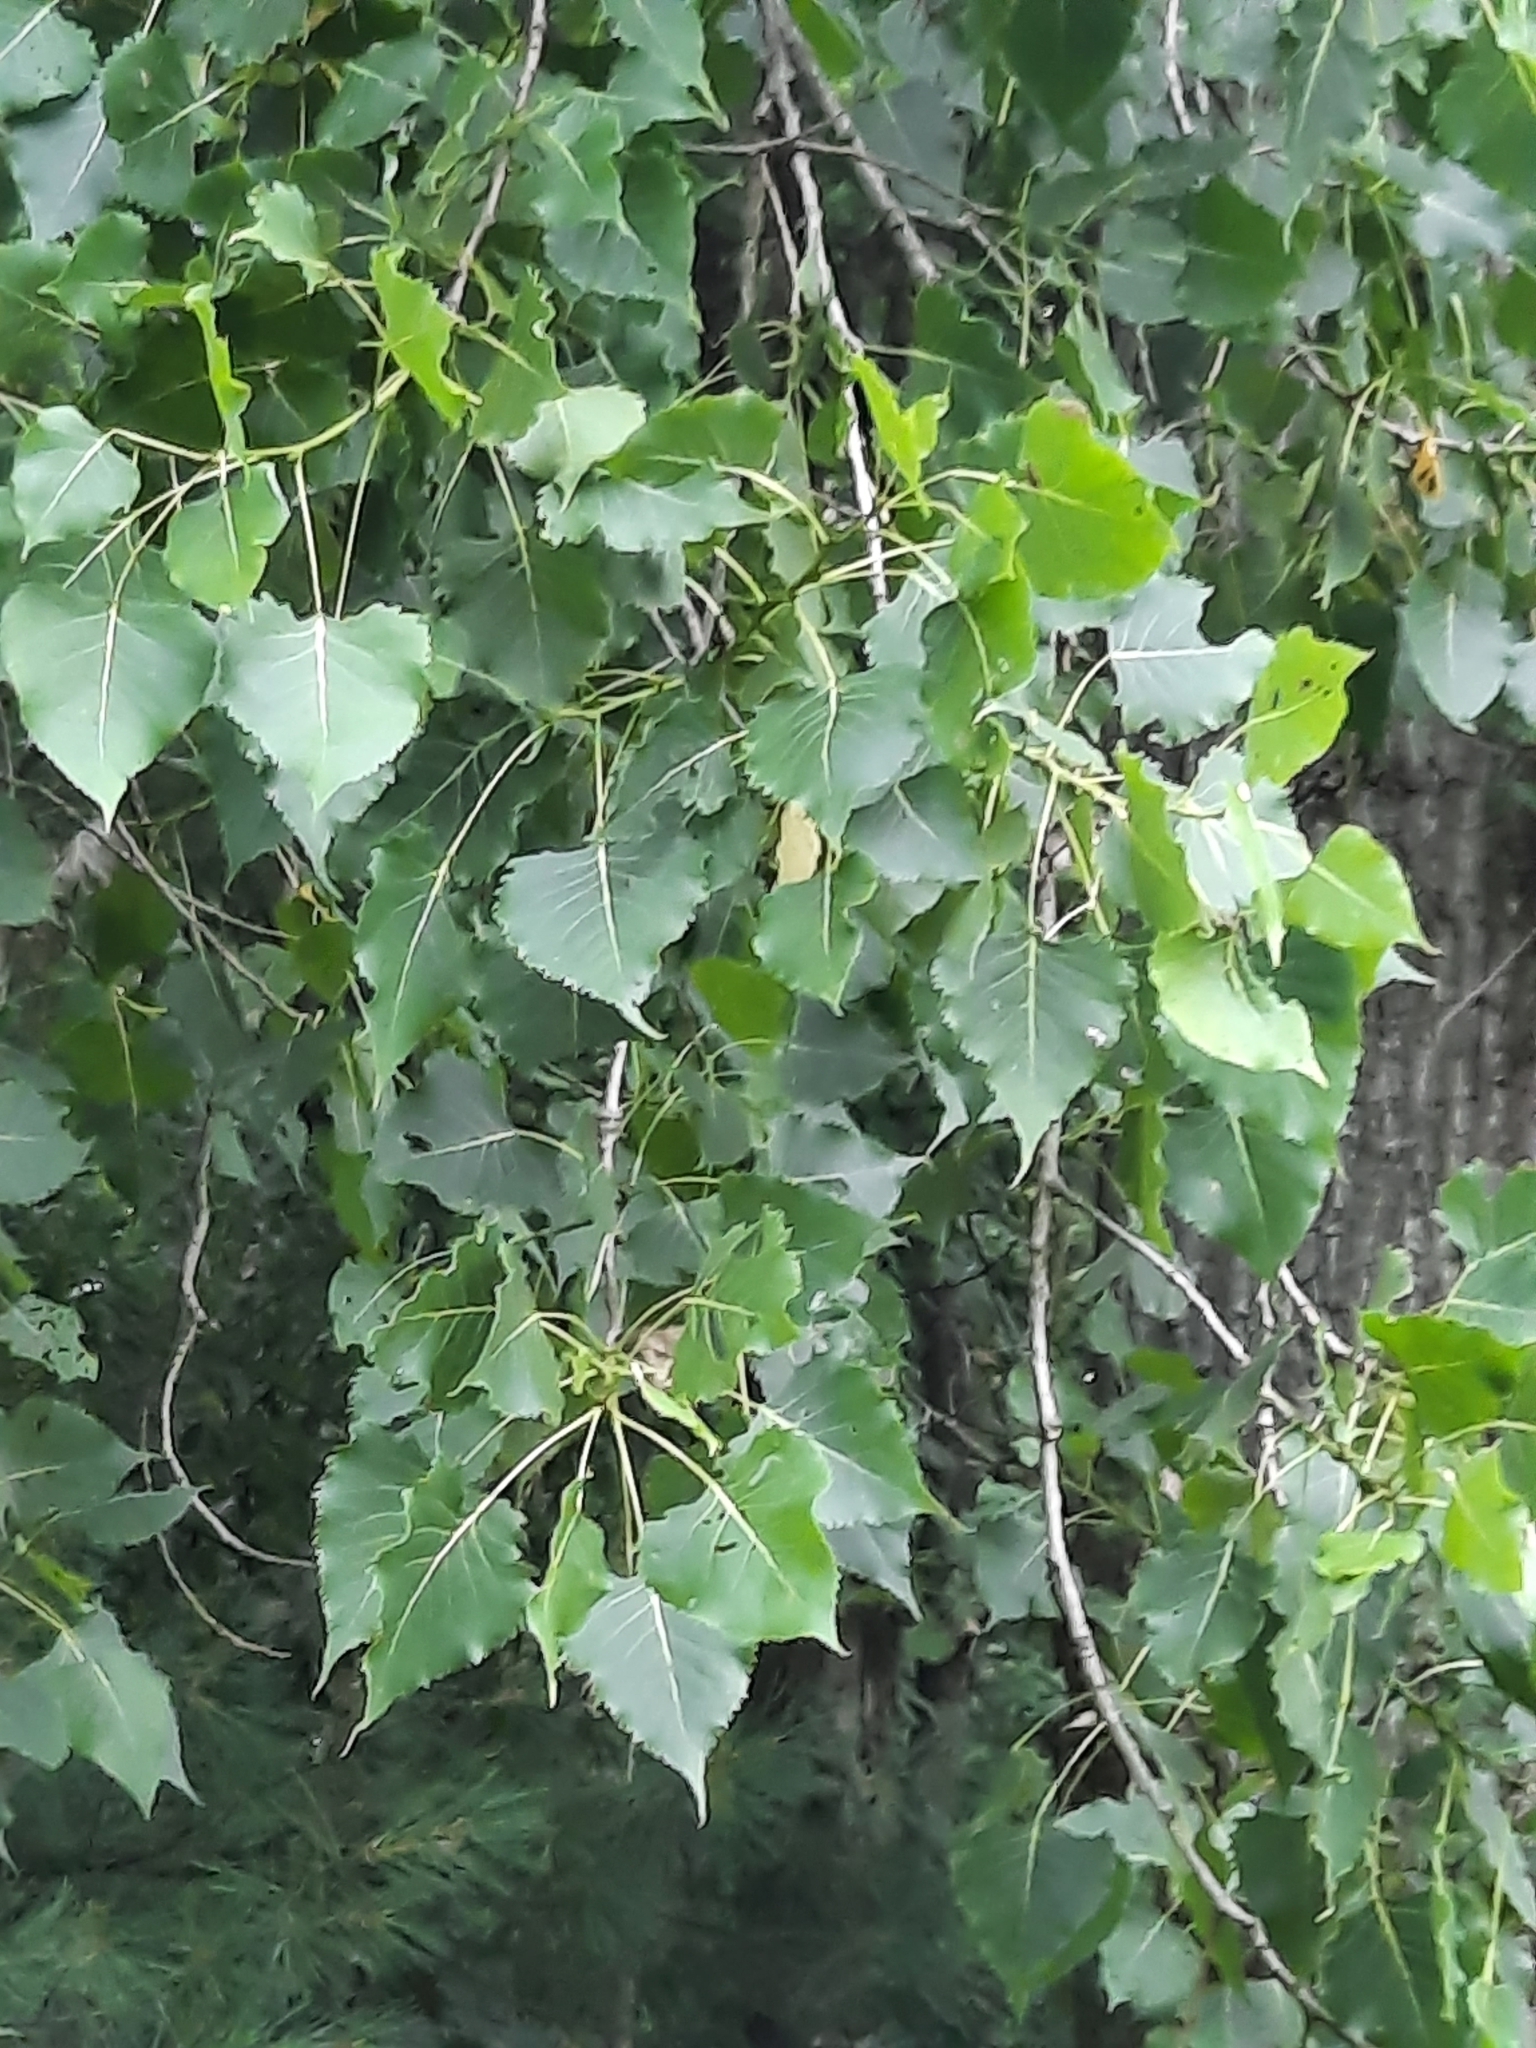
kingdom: Plantae
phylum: Tracheophyta
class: Magnoliopsida
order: Malpighiales
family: Salicaceae
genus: Populus
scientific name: Populus deltoides
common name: Eastern cottonwood
